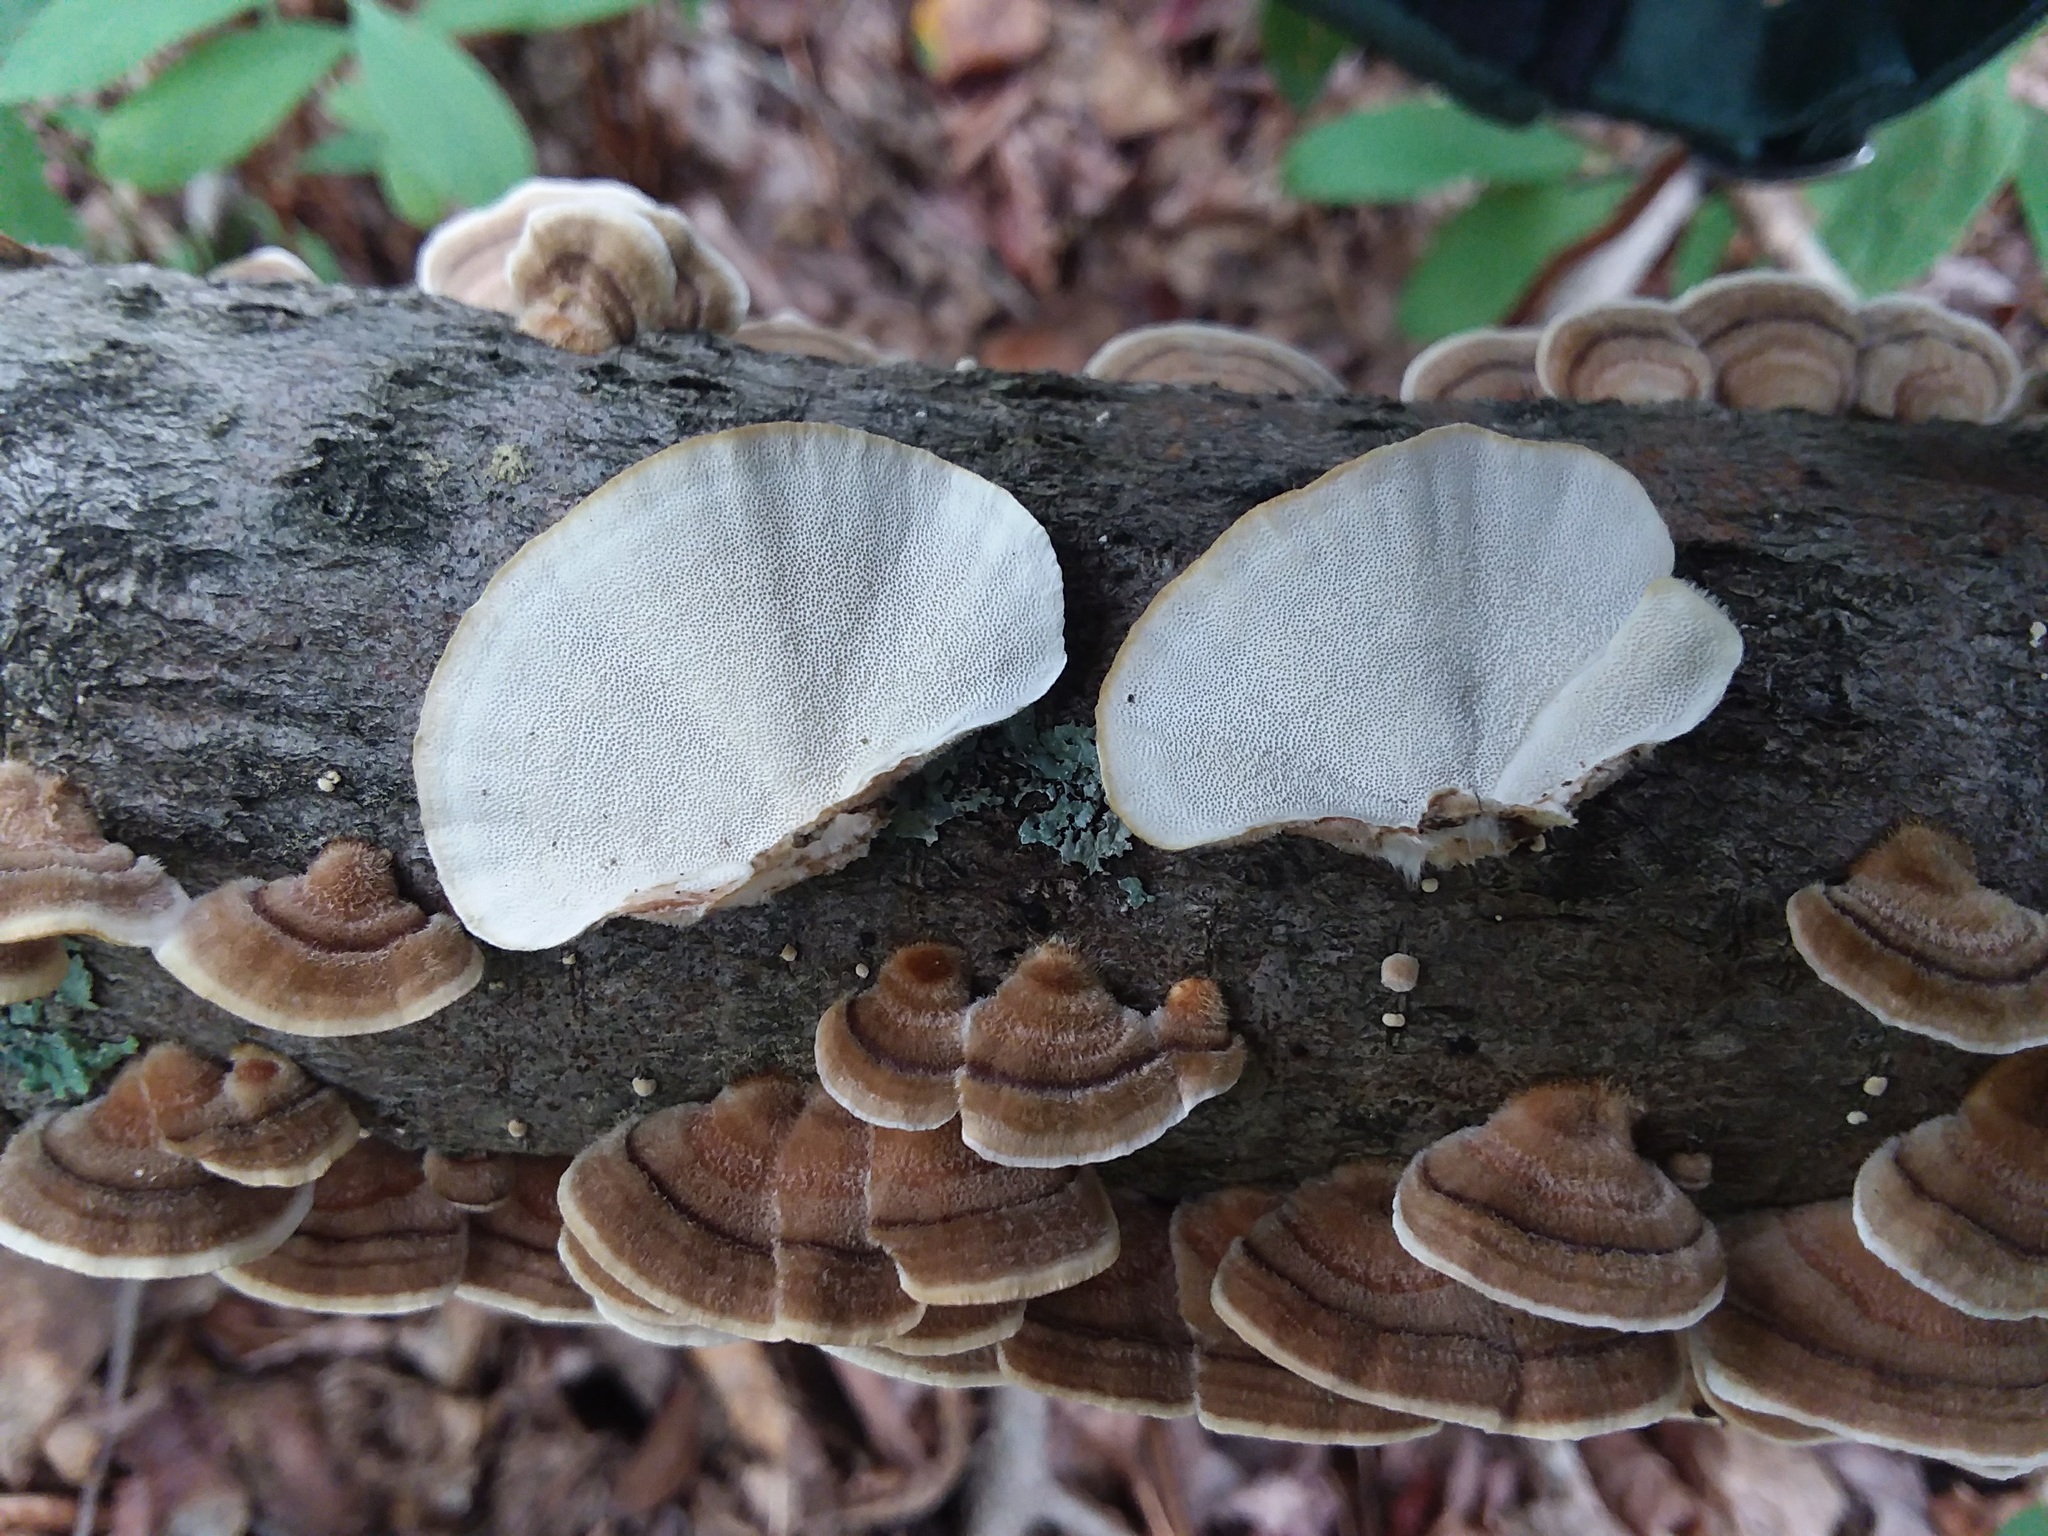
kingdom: Fungi
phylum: Basidiomycota
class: Agaricomycetes
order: Polyporales
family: Polyporaceae
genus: Trametes
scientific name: Trametes hirsuta
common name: Hairy bracket
